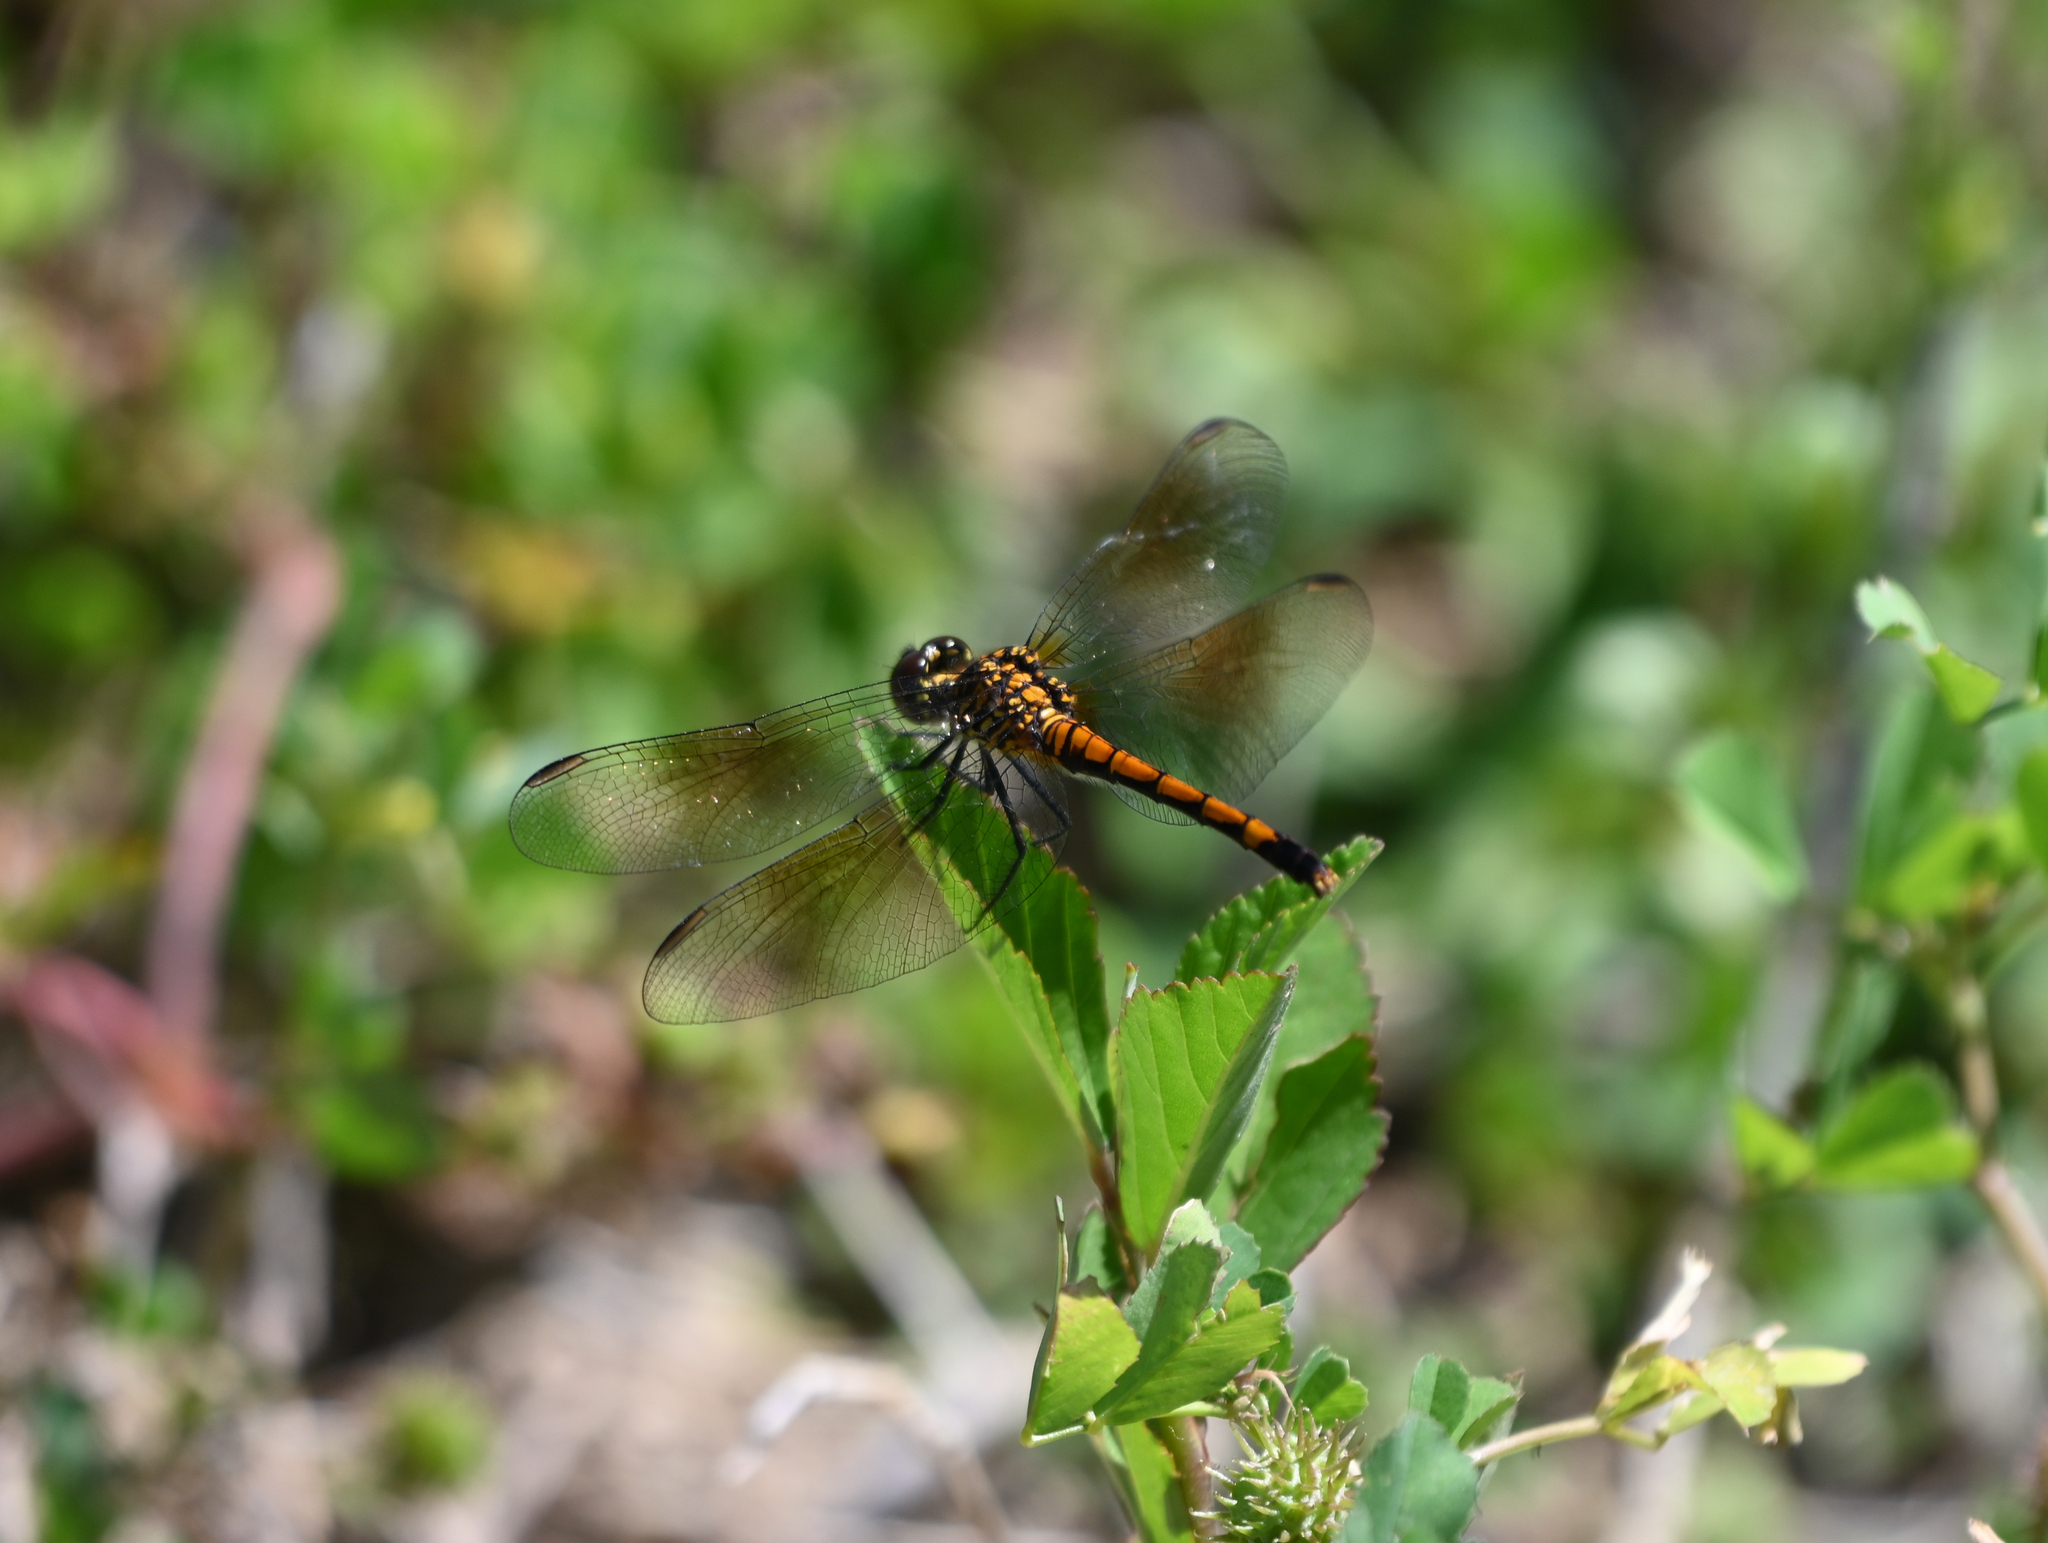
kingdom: Animalia
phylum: Arthropoda
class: Insecta
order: Odonata
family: Libellulidae
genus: Erythrodiplax
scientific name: Erythrodiplax berenice
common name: Seaside dragonlet
